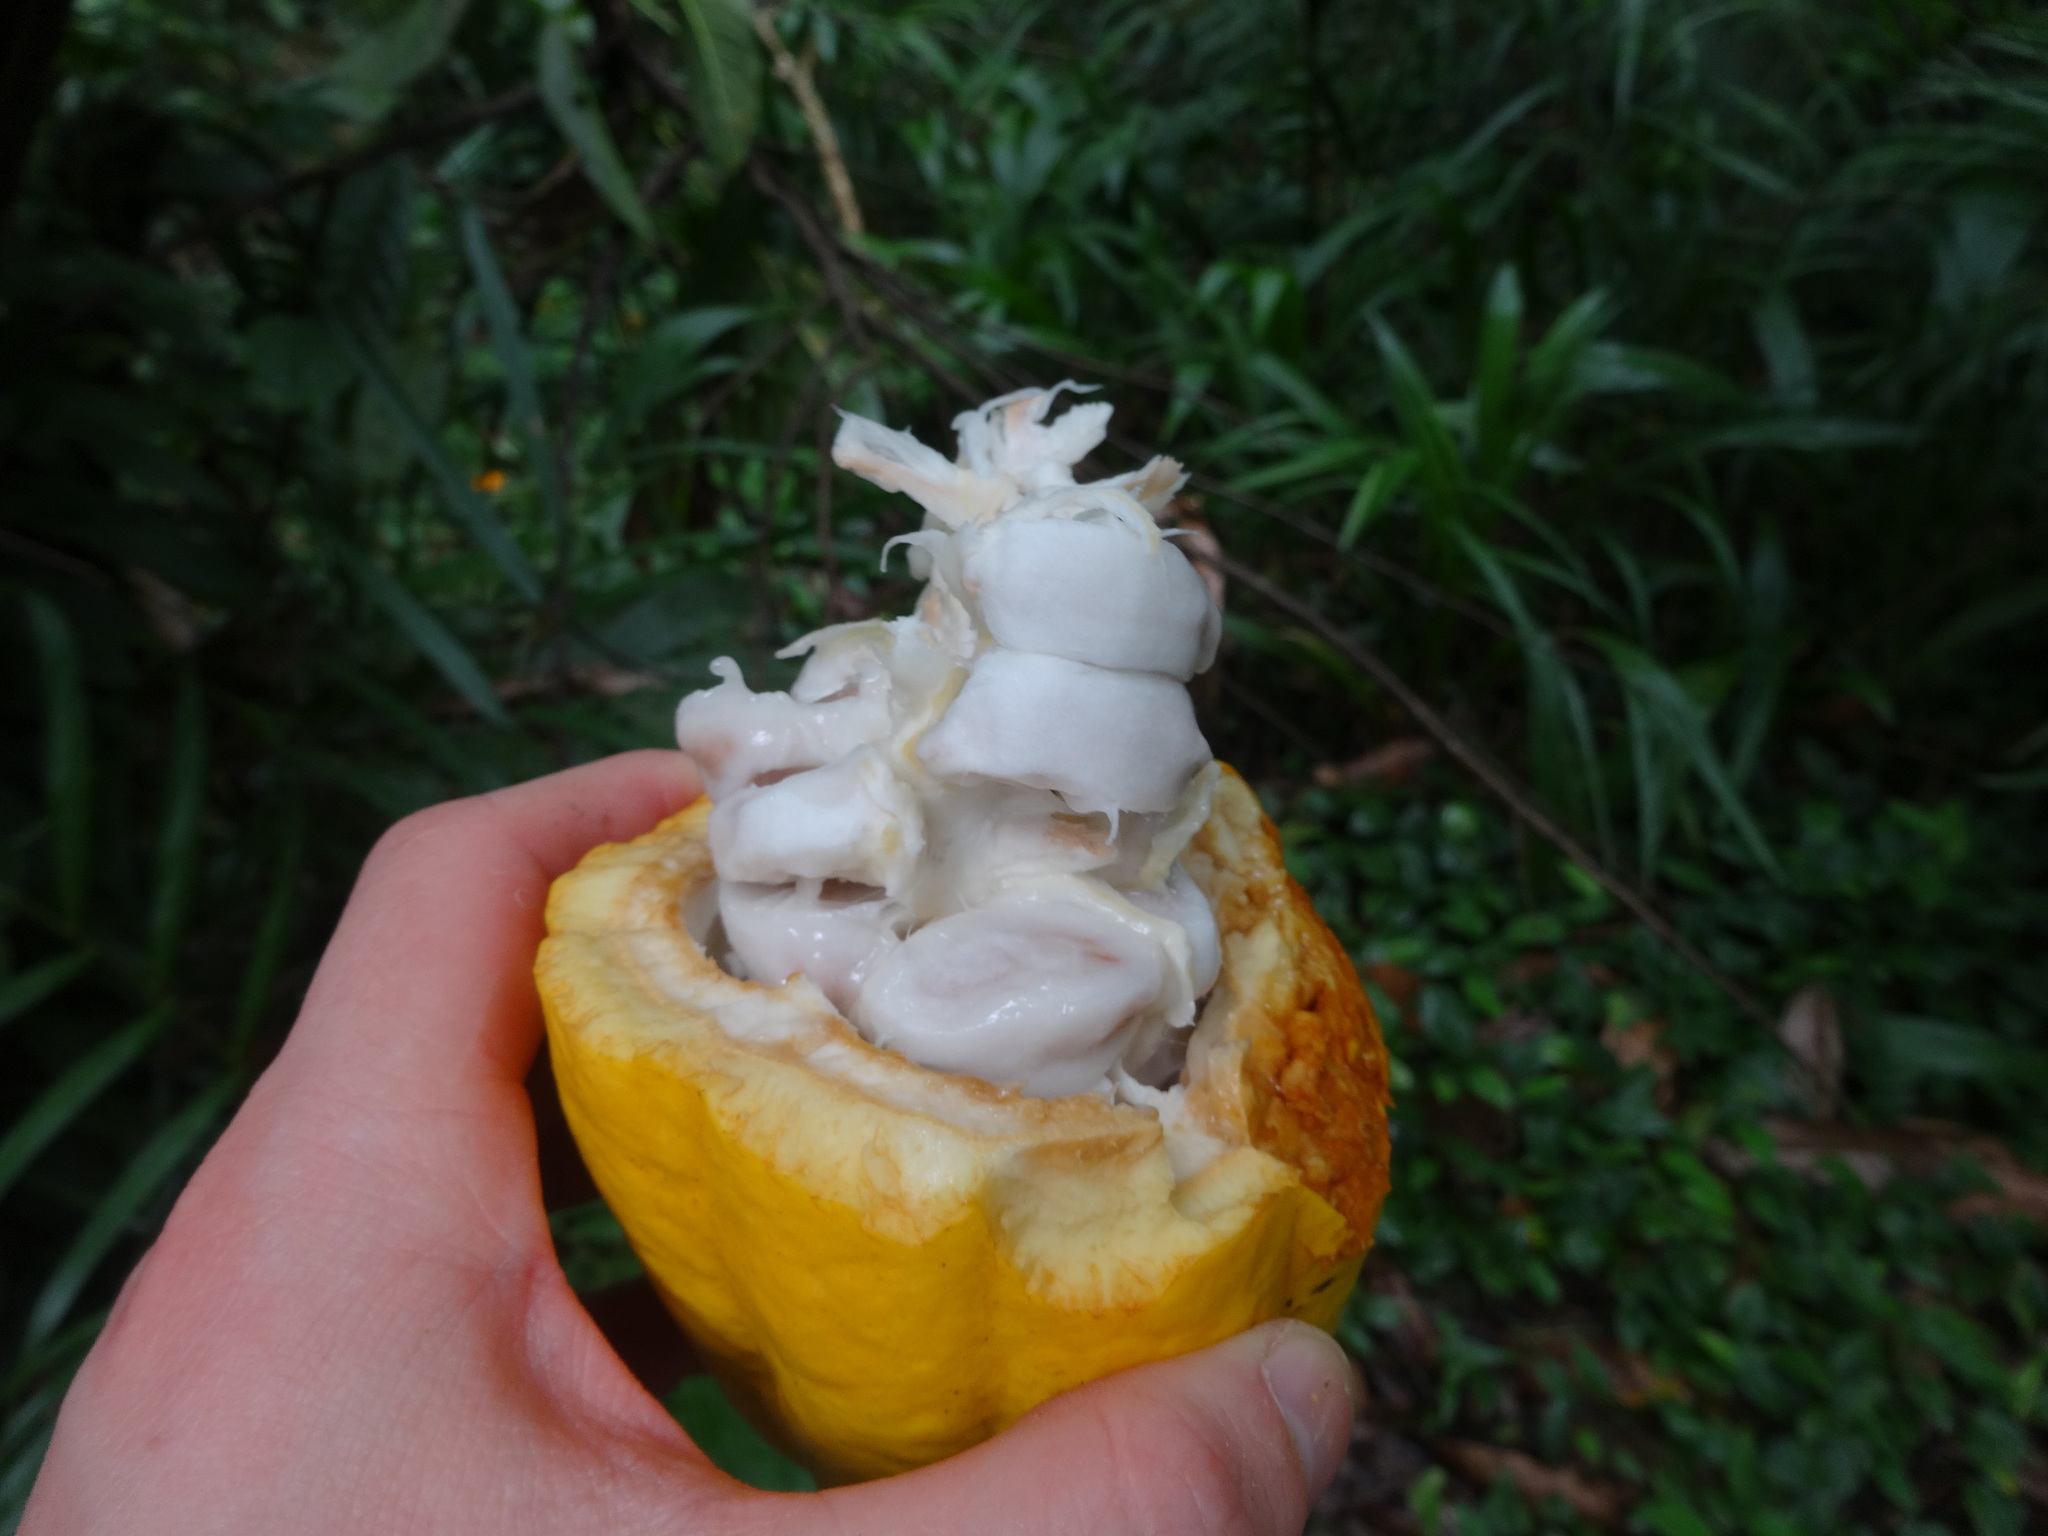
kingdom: Plantae
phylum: Tracheophyta
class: Magnoliopsida
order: Malvales
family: Malvaceae
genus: Theobroma
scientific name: Theobroma cacao
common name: Cocoa
